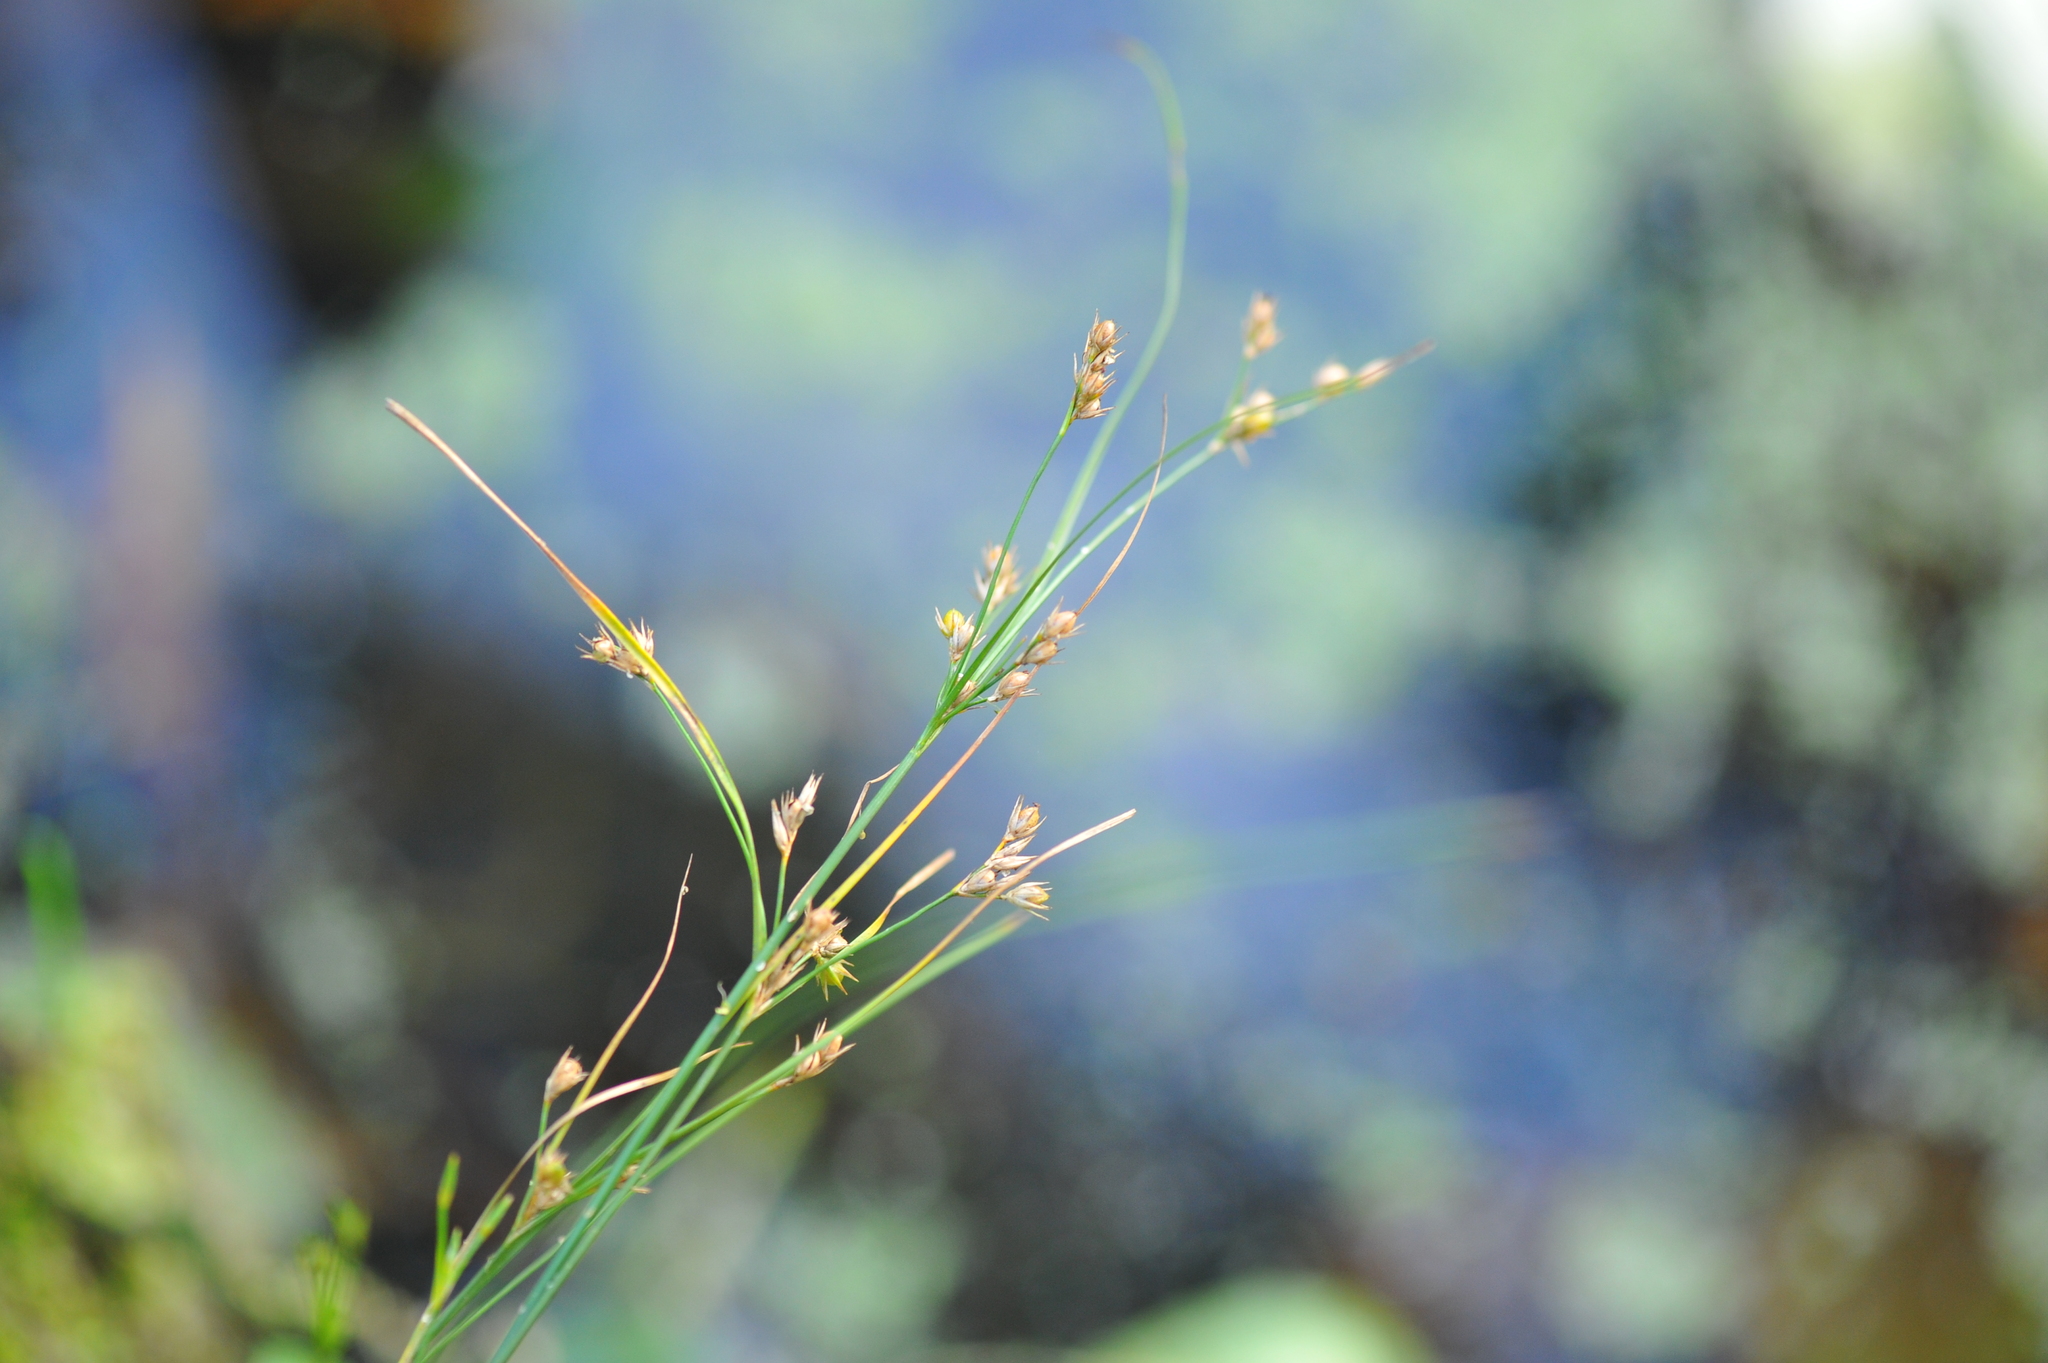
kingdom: Plantae
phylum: Tracheophyta
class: Liliopsida
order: Poales
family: Juncaceae
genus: Juncus
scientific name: Juncus tenuis
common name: Slender rush
